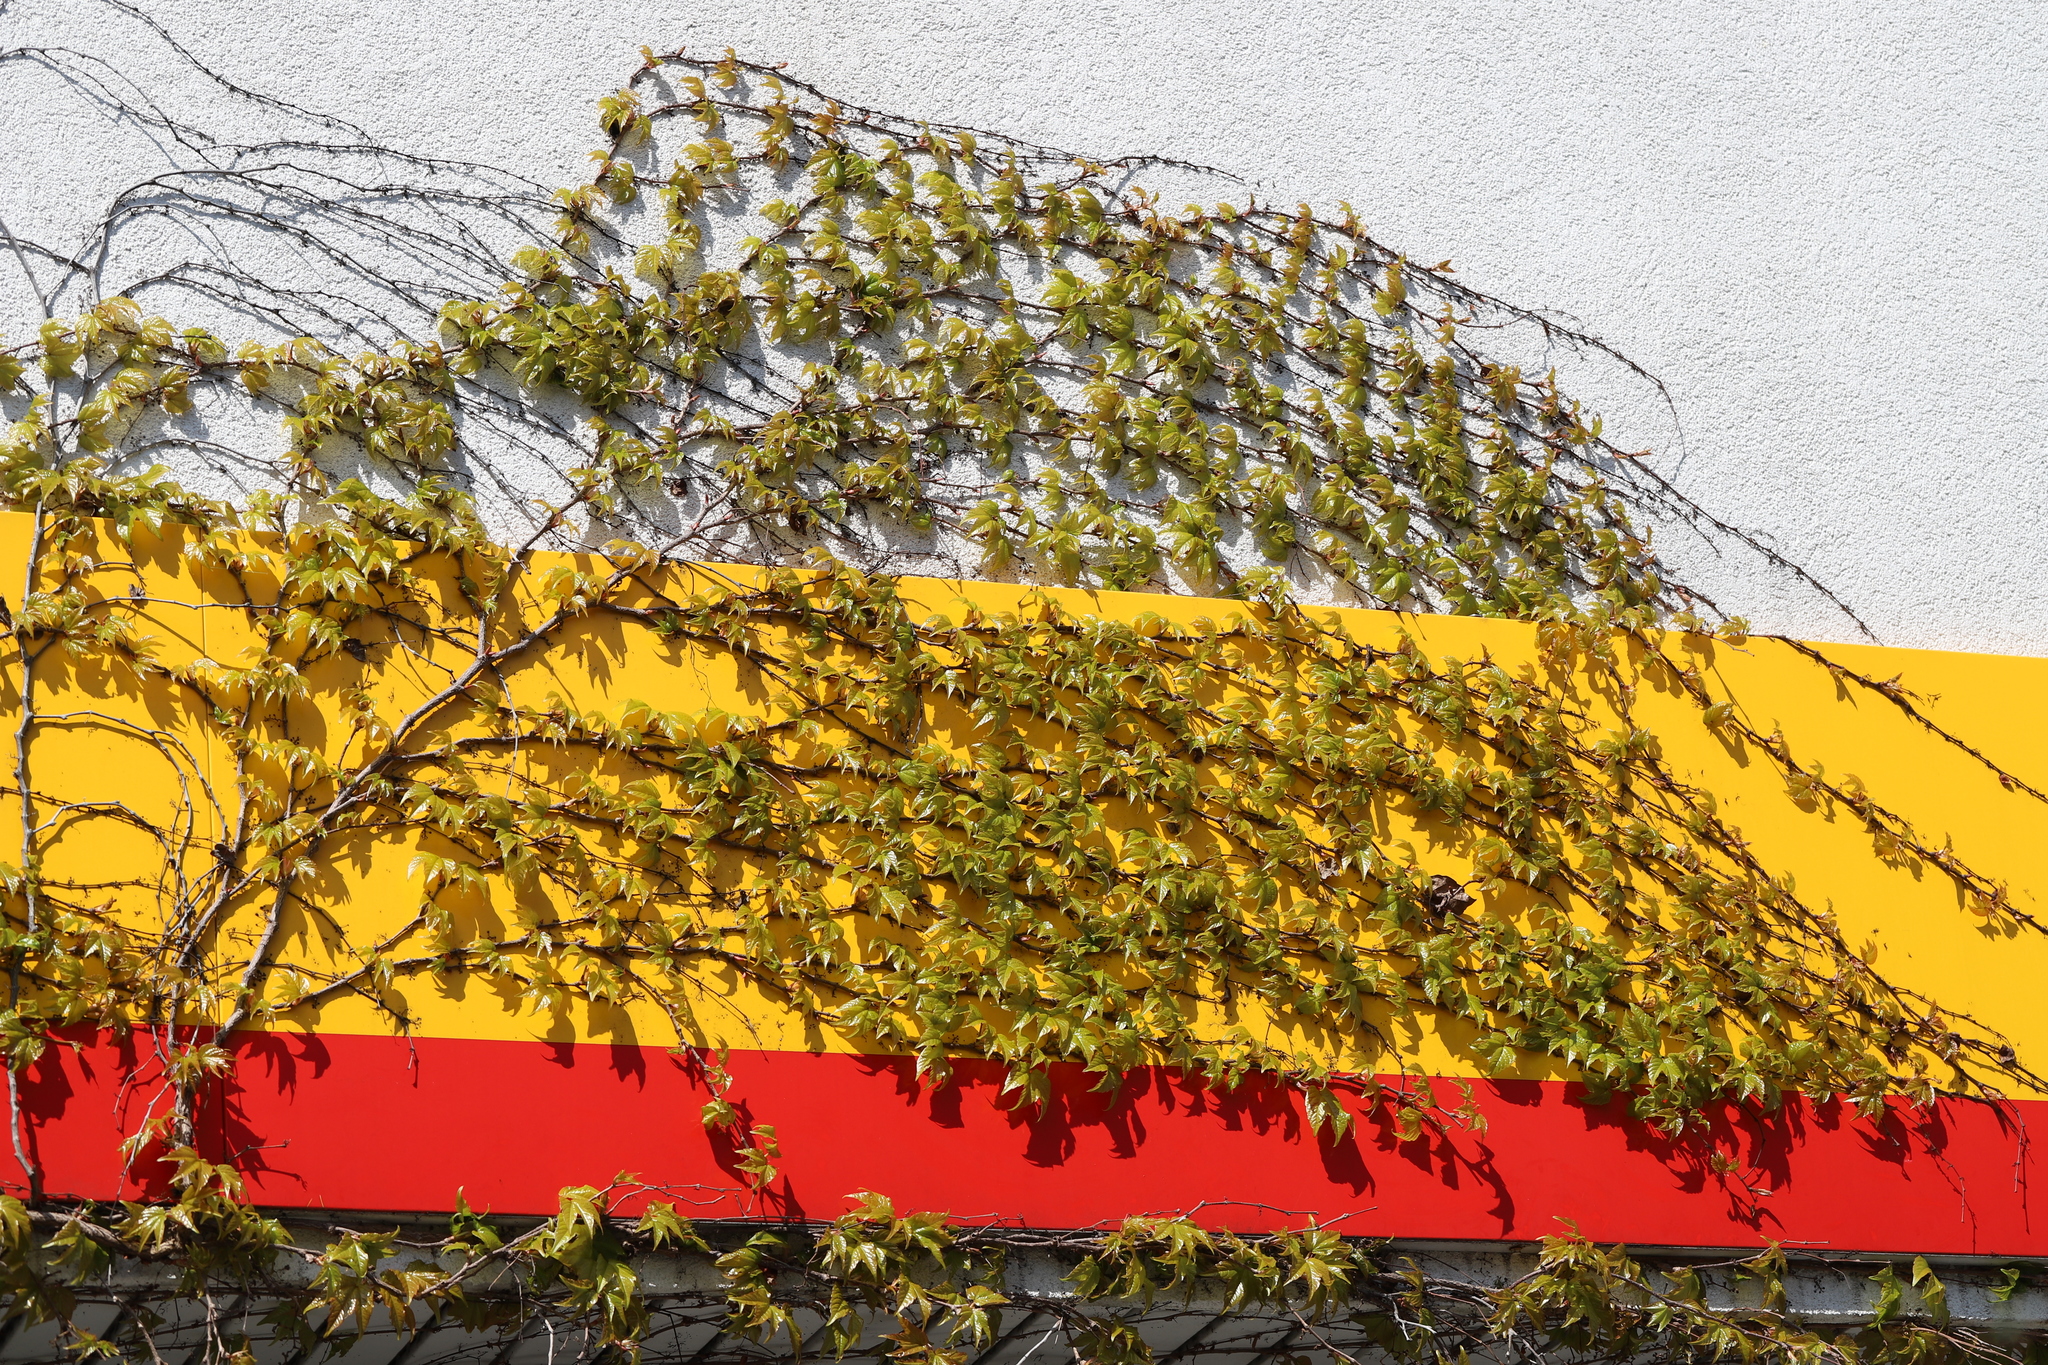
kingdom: Plantae
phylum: Tracheophyta
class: Magnoliopsida
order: Vitales
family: Vitaceae
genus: Parthenocissus
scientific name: Parthenocissus quinquefolia
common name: Virginia-creeper
